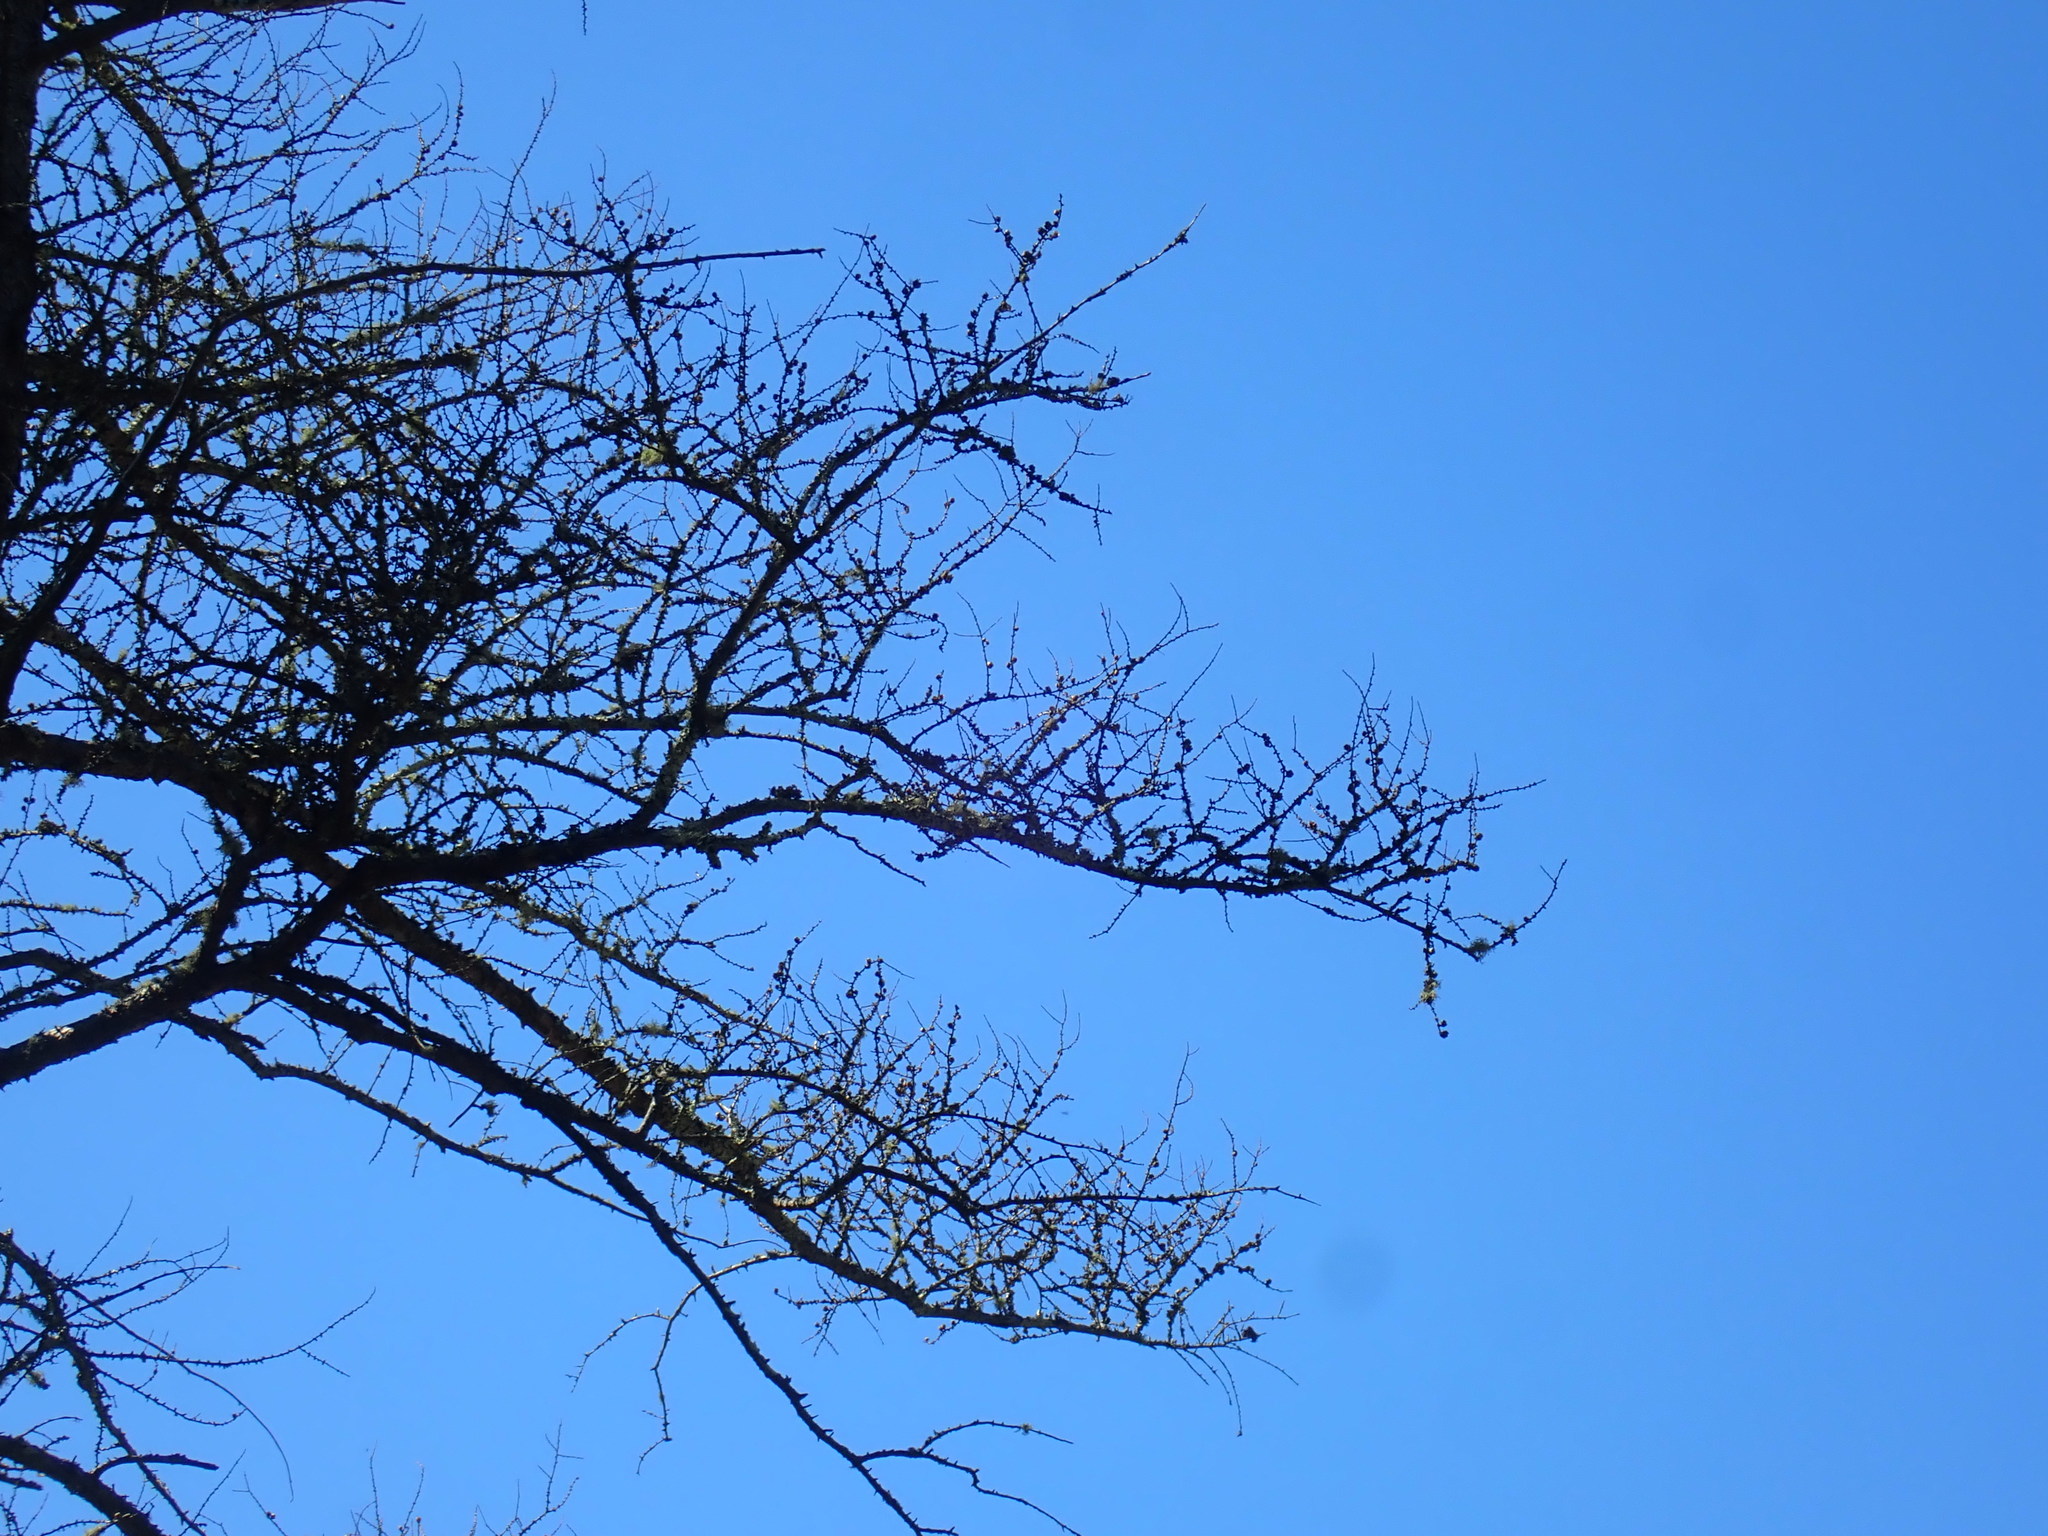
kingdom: Plantae
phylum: Tracheophyta
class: Pinopsida
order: Pinales
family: Pinaceae
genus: Larix
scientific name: Larix laricina
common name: American larch
